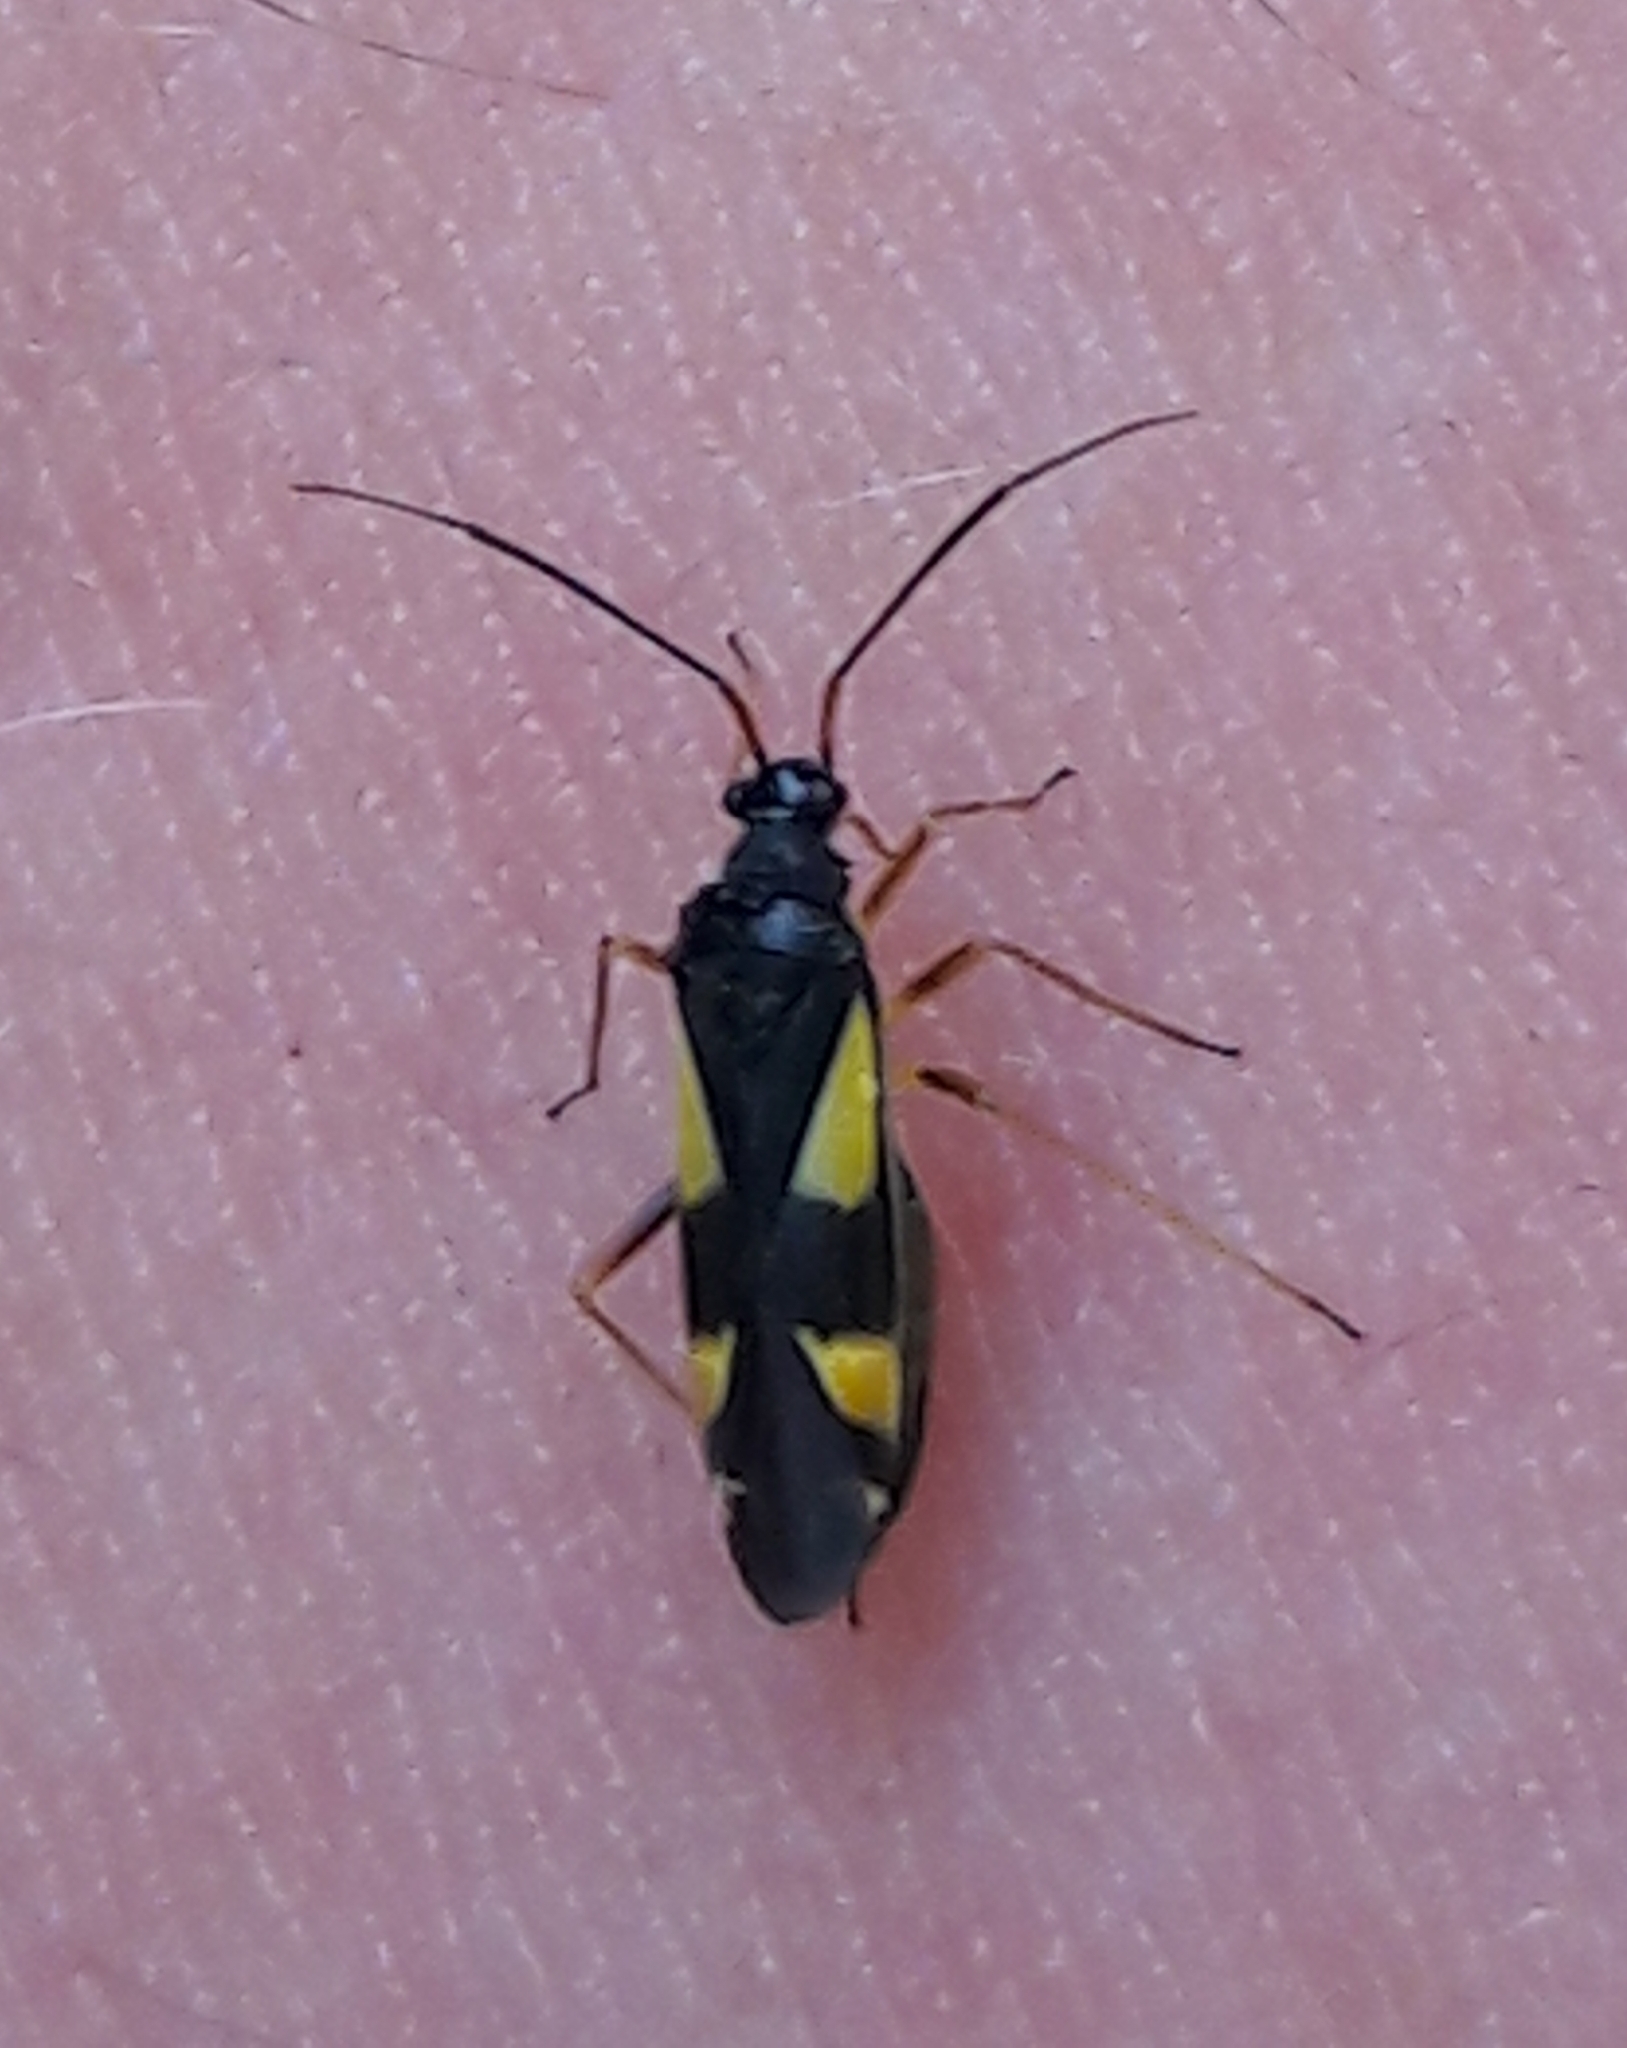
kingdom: Animalia
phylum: Arthropoda
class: Insecta
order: Hemiptera
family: Miridae
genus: Dryophilocoris
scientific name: Dryophilocoris flavoquadrimaculatus
